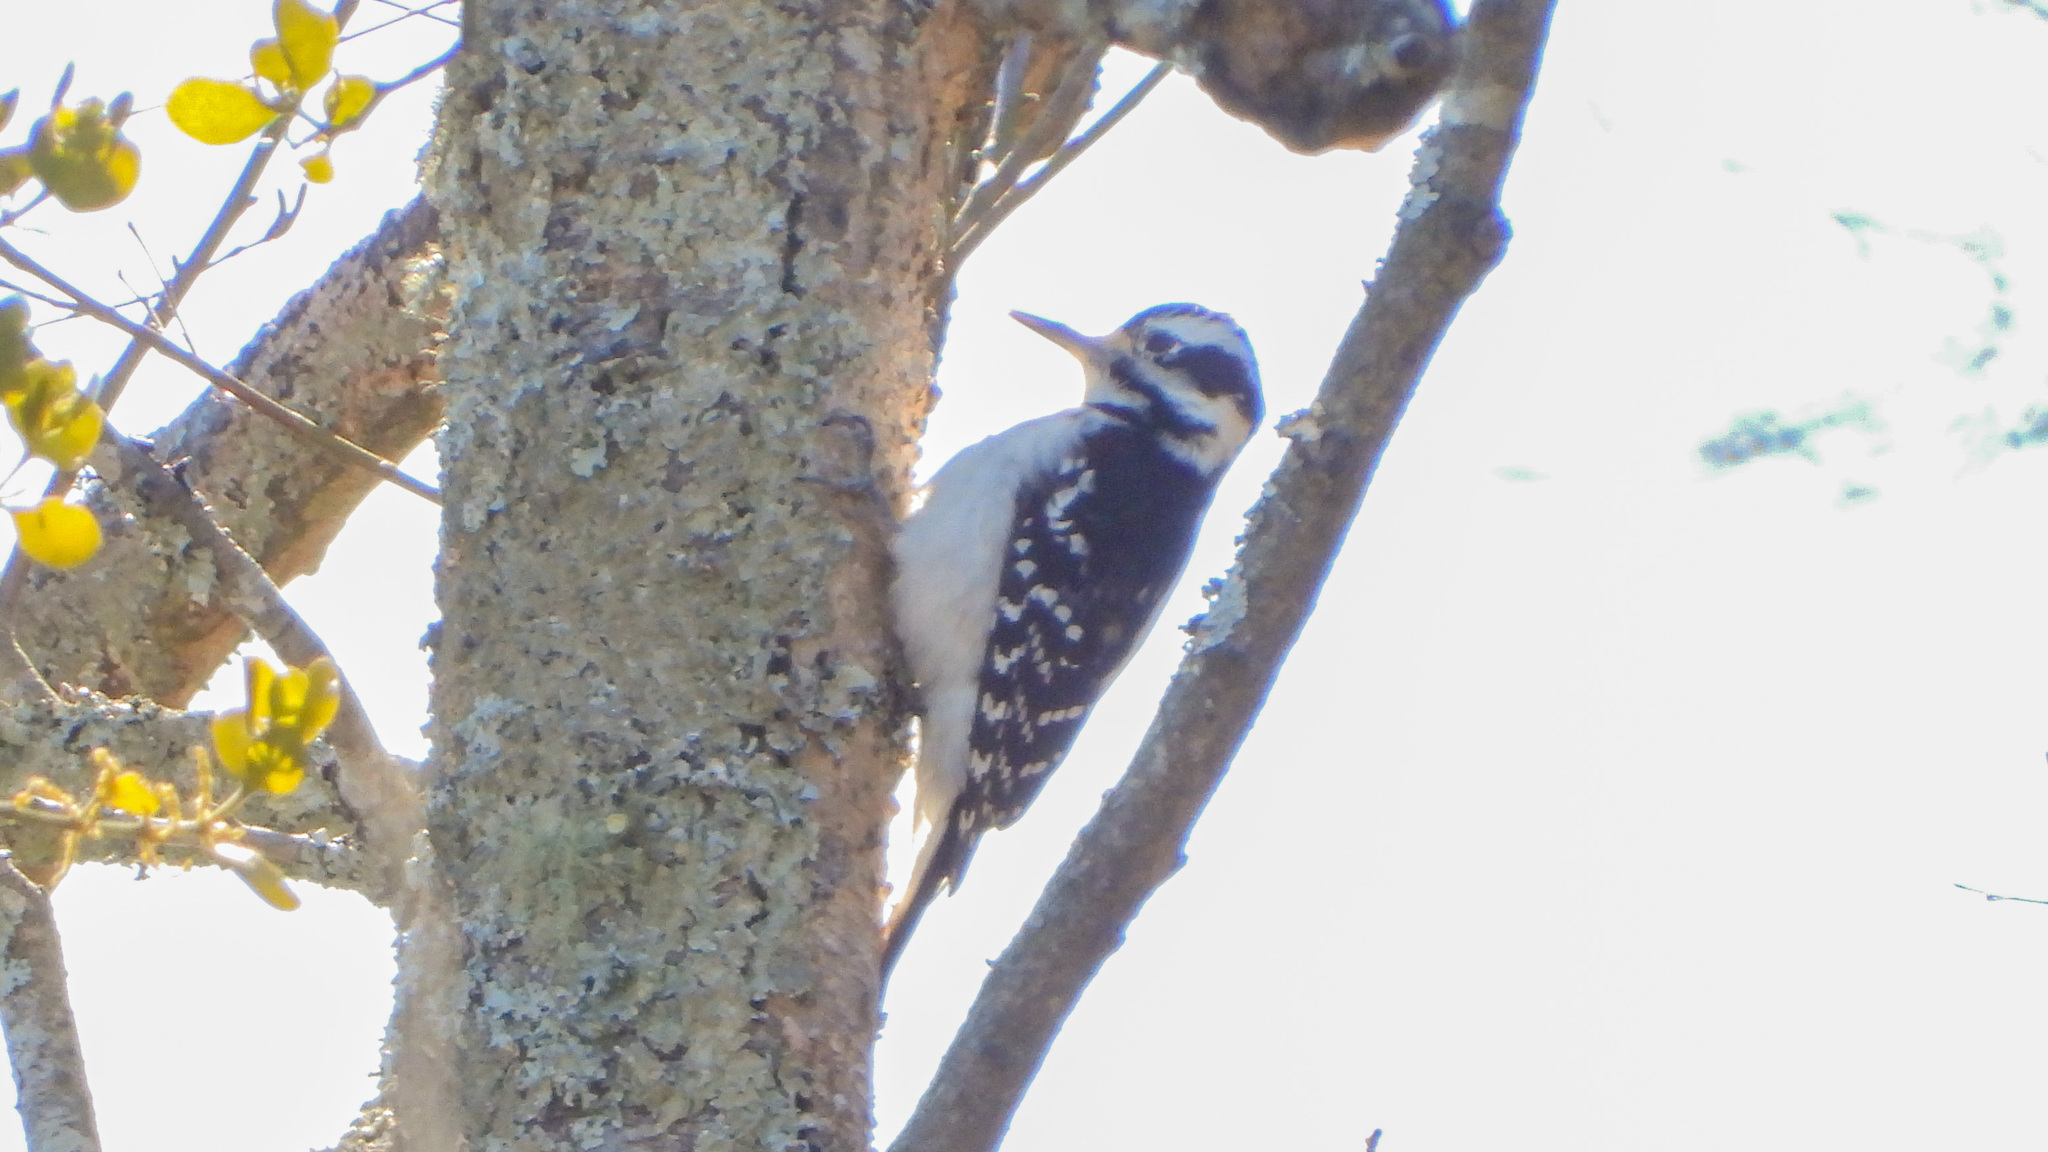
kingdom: Animalia
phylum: Chordata
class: Aves
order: Piciformes
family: Picidae
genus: Leuconotopicus
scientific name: Leuconotopicus villosus
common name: Hairy woodpecker
